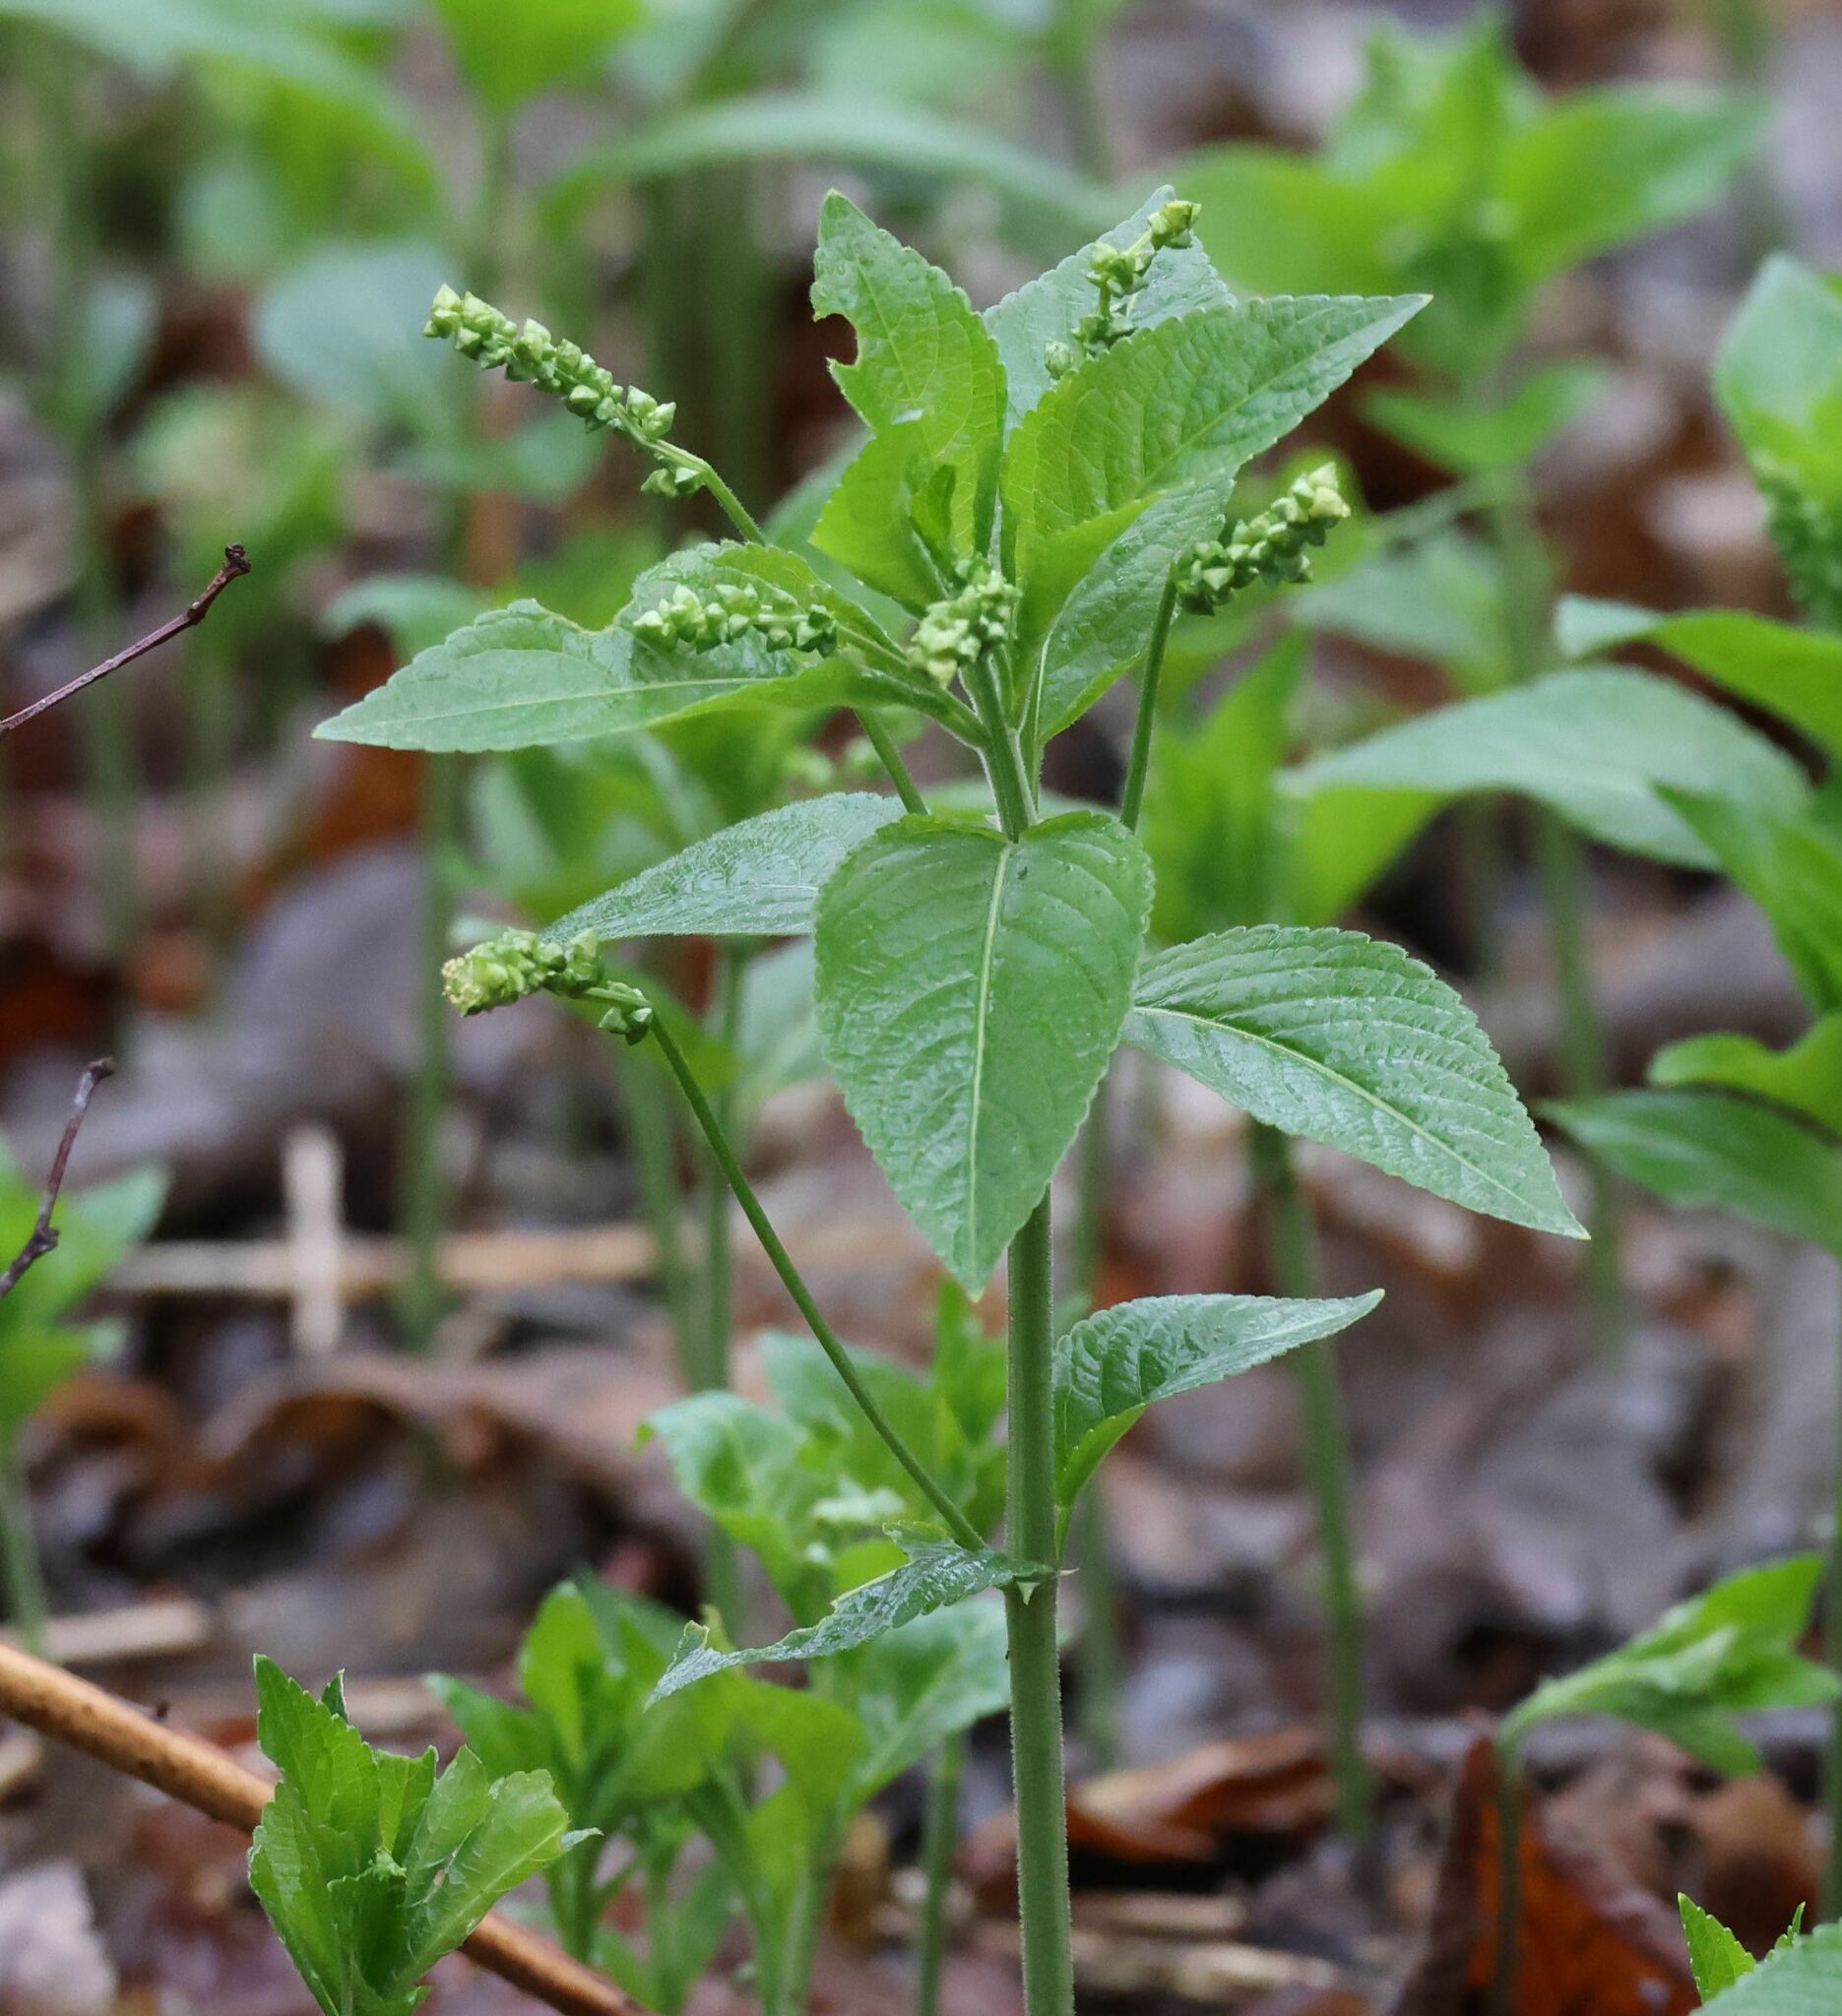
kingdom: Plantae
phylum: Tracheophyta
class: Magnoliopsida
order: Malpighiales
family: Euphorbiaceae
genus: Mercurialis
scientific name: Mercurialis perennis
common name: Dog mercury
